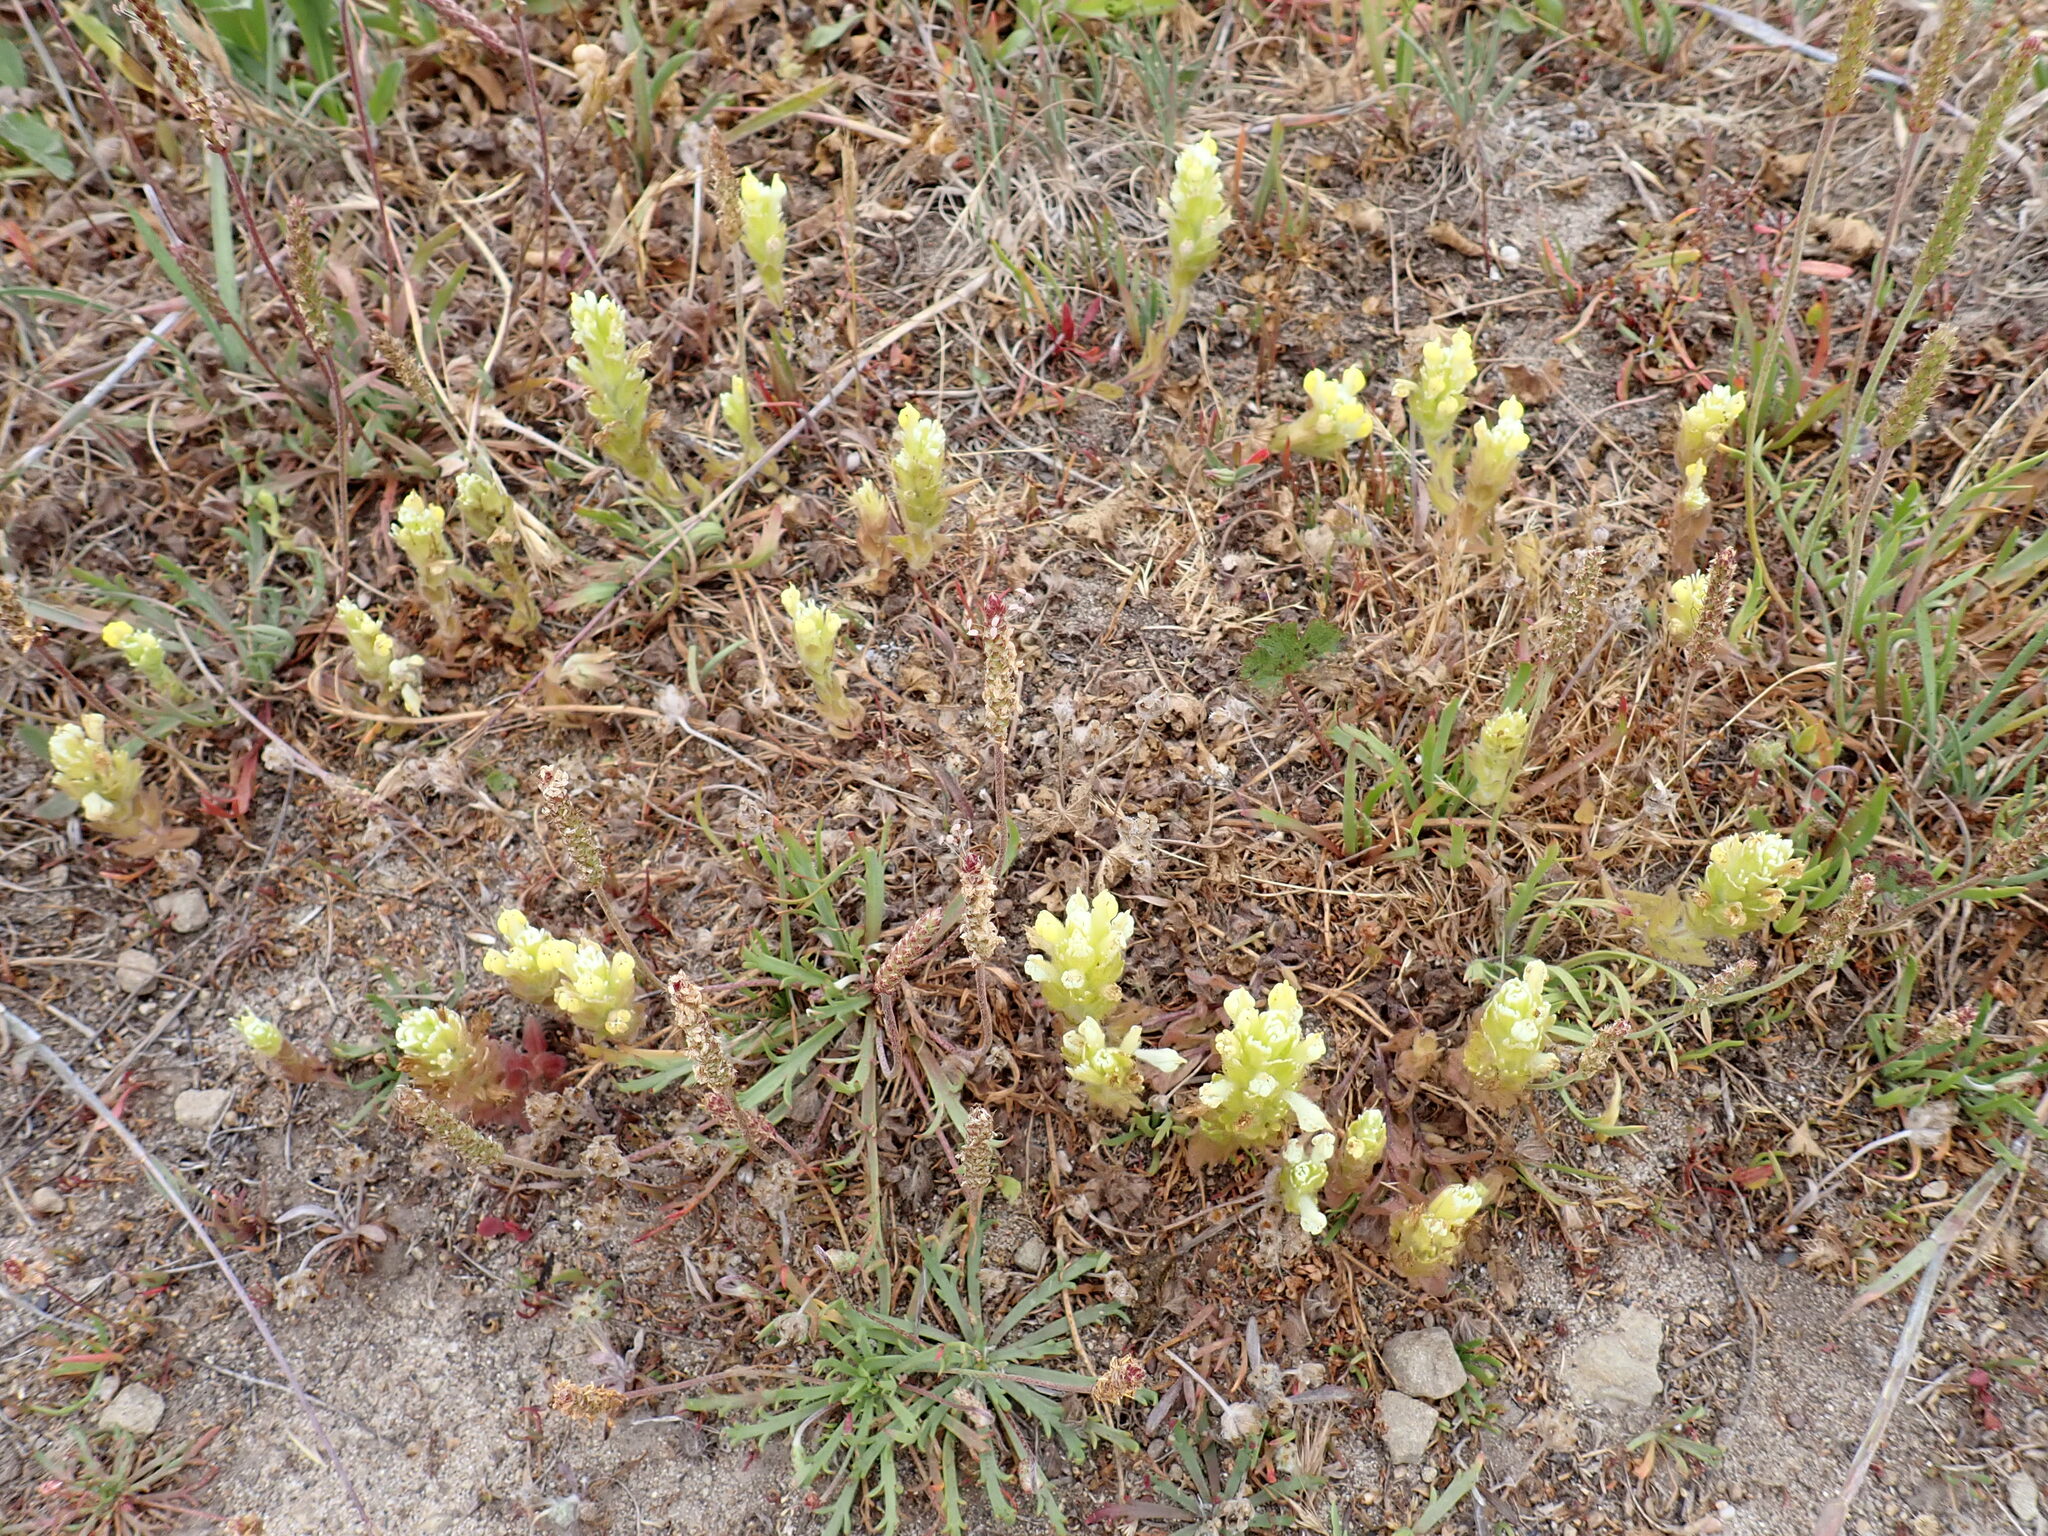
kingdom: Plantae
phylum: Tracheophyta
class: Magnoliopsida
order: Lamiales
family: Orobanchaceae
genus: Castilleja
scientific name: Castilleja ambigua
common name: Johnny-nip
